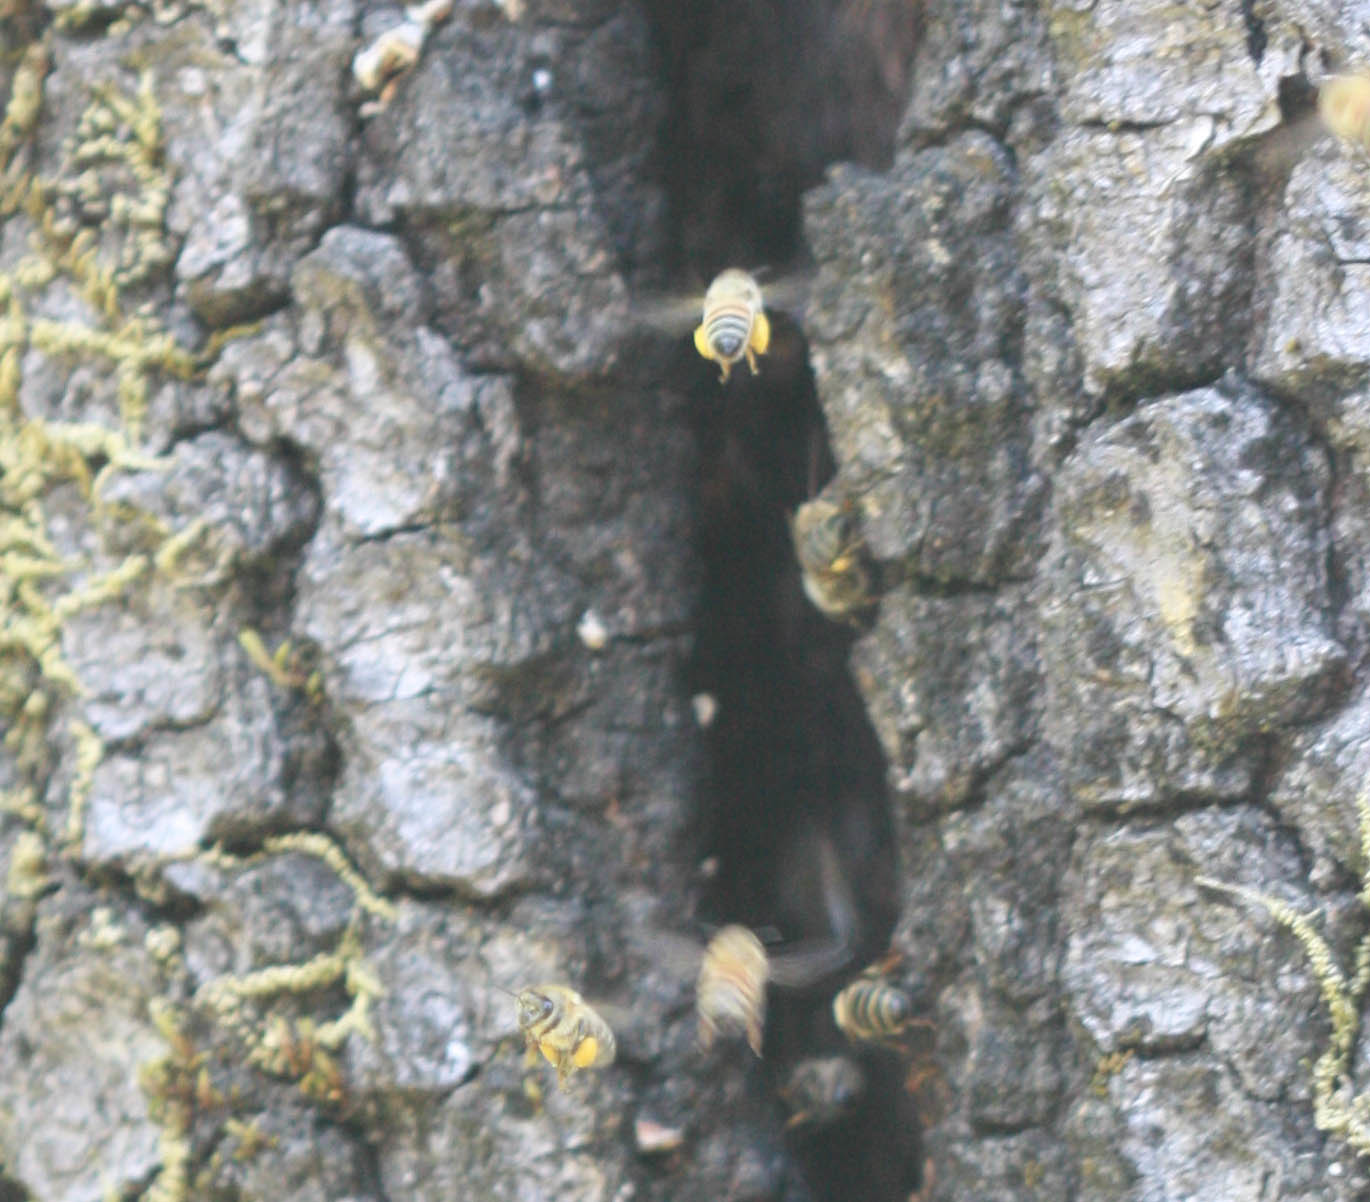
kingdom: Animalia
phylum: Arthropoda
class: Insecta
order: Hymenoptera
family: Apidae
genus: Apis
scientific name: Apis mellifera
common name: Honey bee
